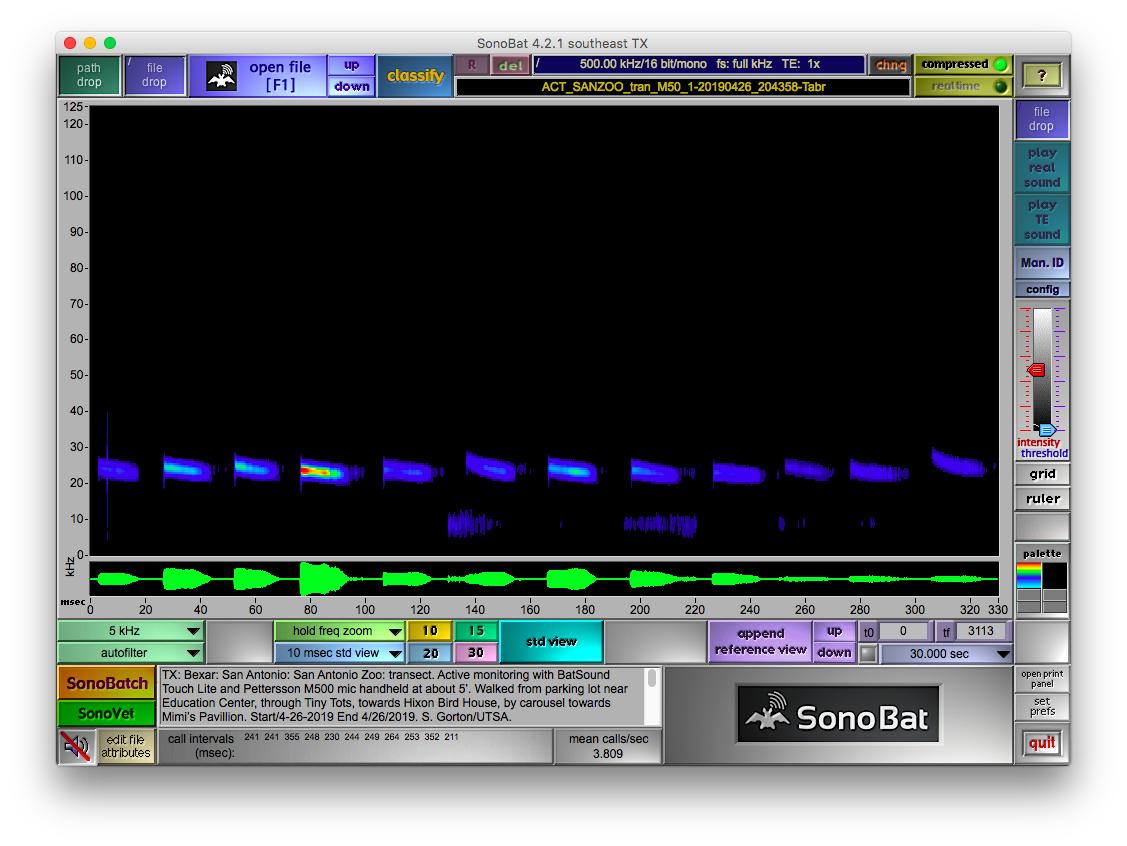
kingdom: Animalia
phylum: Chordata
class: Mammalia
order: Chiroptera
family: Molossidae
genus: Tadarida
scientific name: Tadarida brasiliensis
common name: Mexican free-tailed bat
